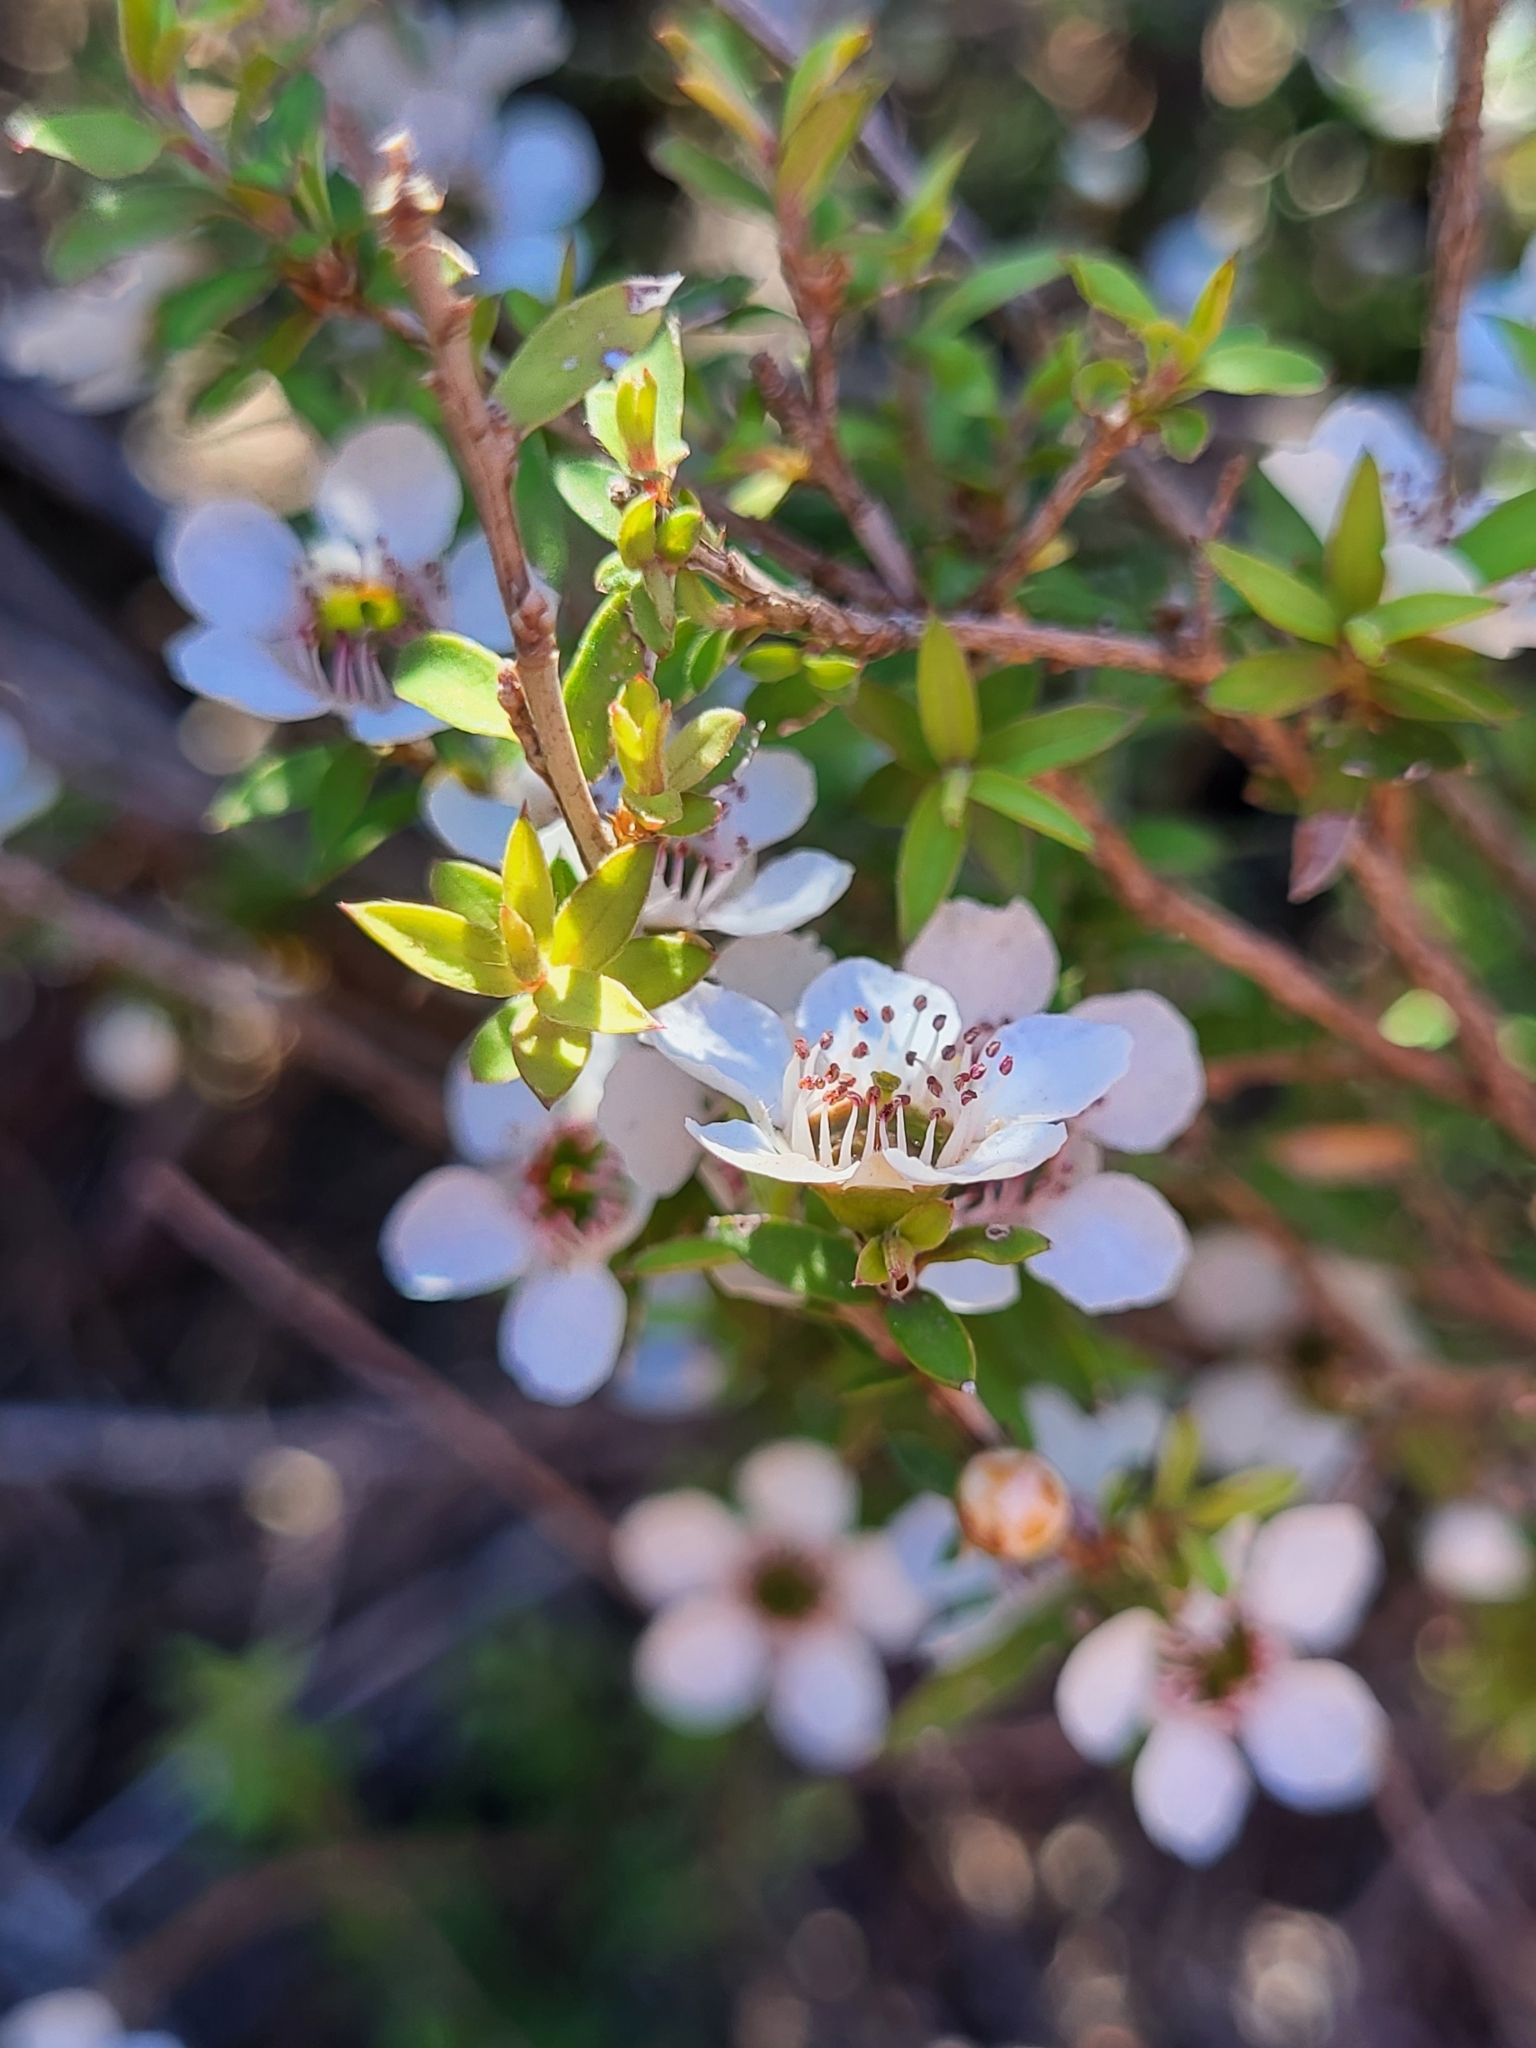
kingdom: Plantae
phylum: Tracheophyta
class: Magnoliopsida
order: Myrtales
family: Myrtaceae
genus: Leptospermum
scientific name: Leptospermum scoparium
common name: Broom tea-tree
